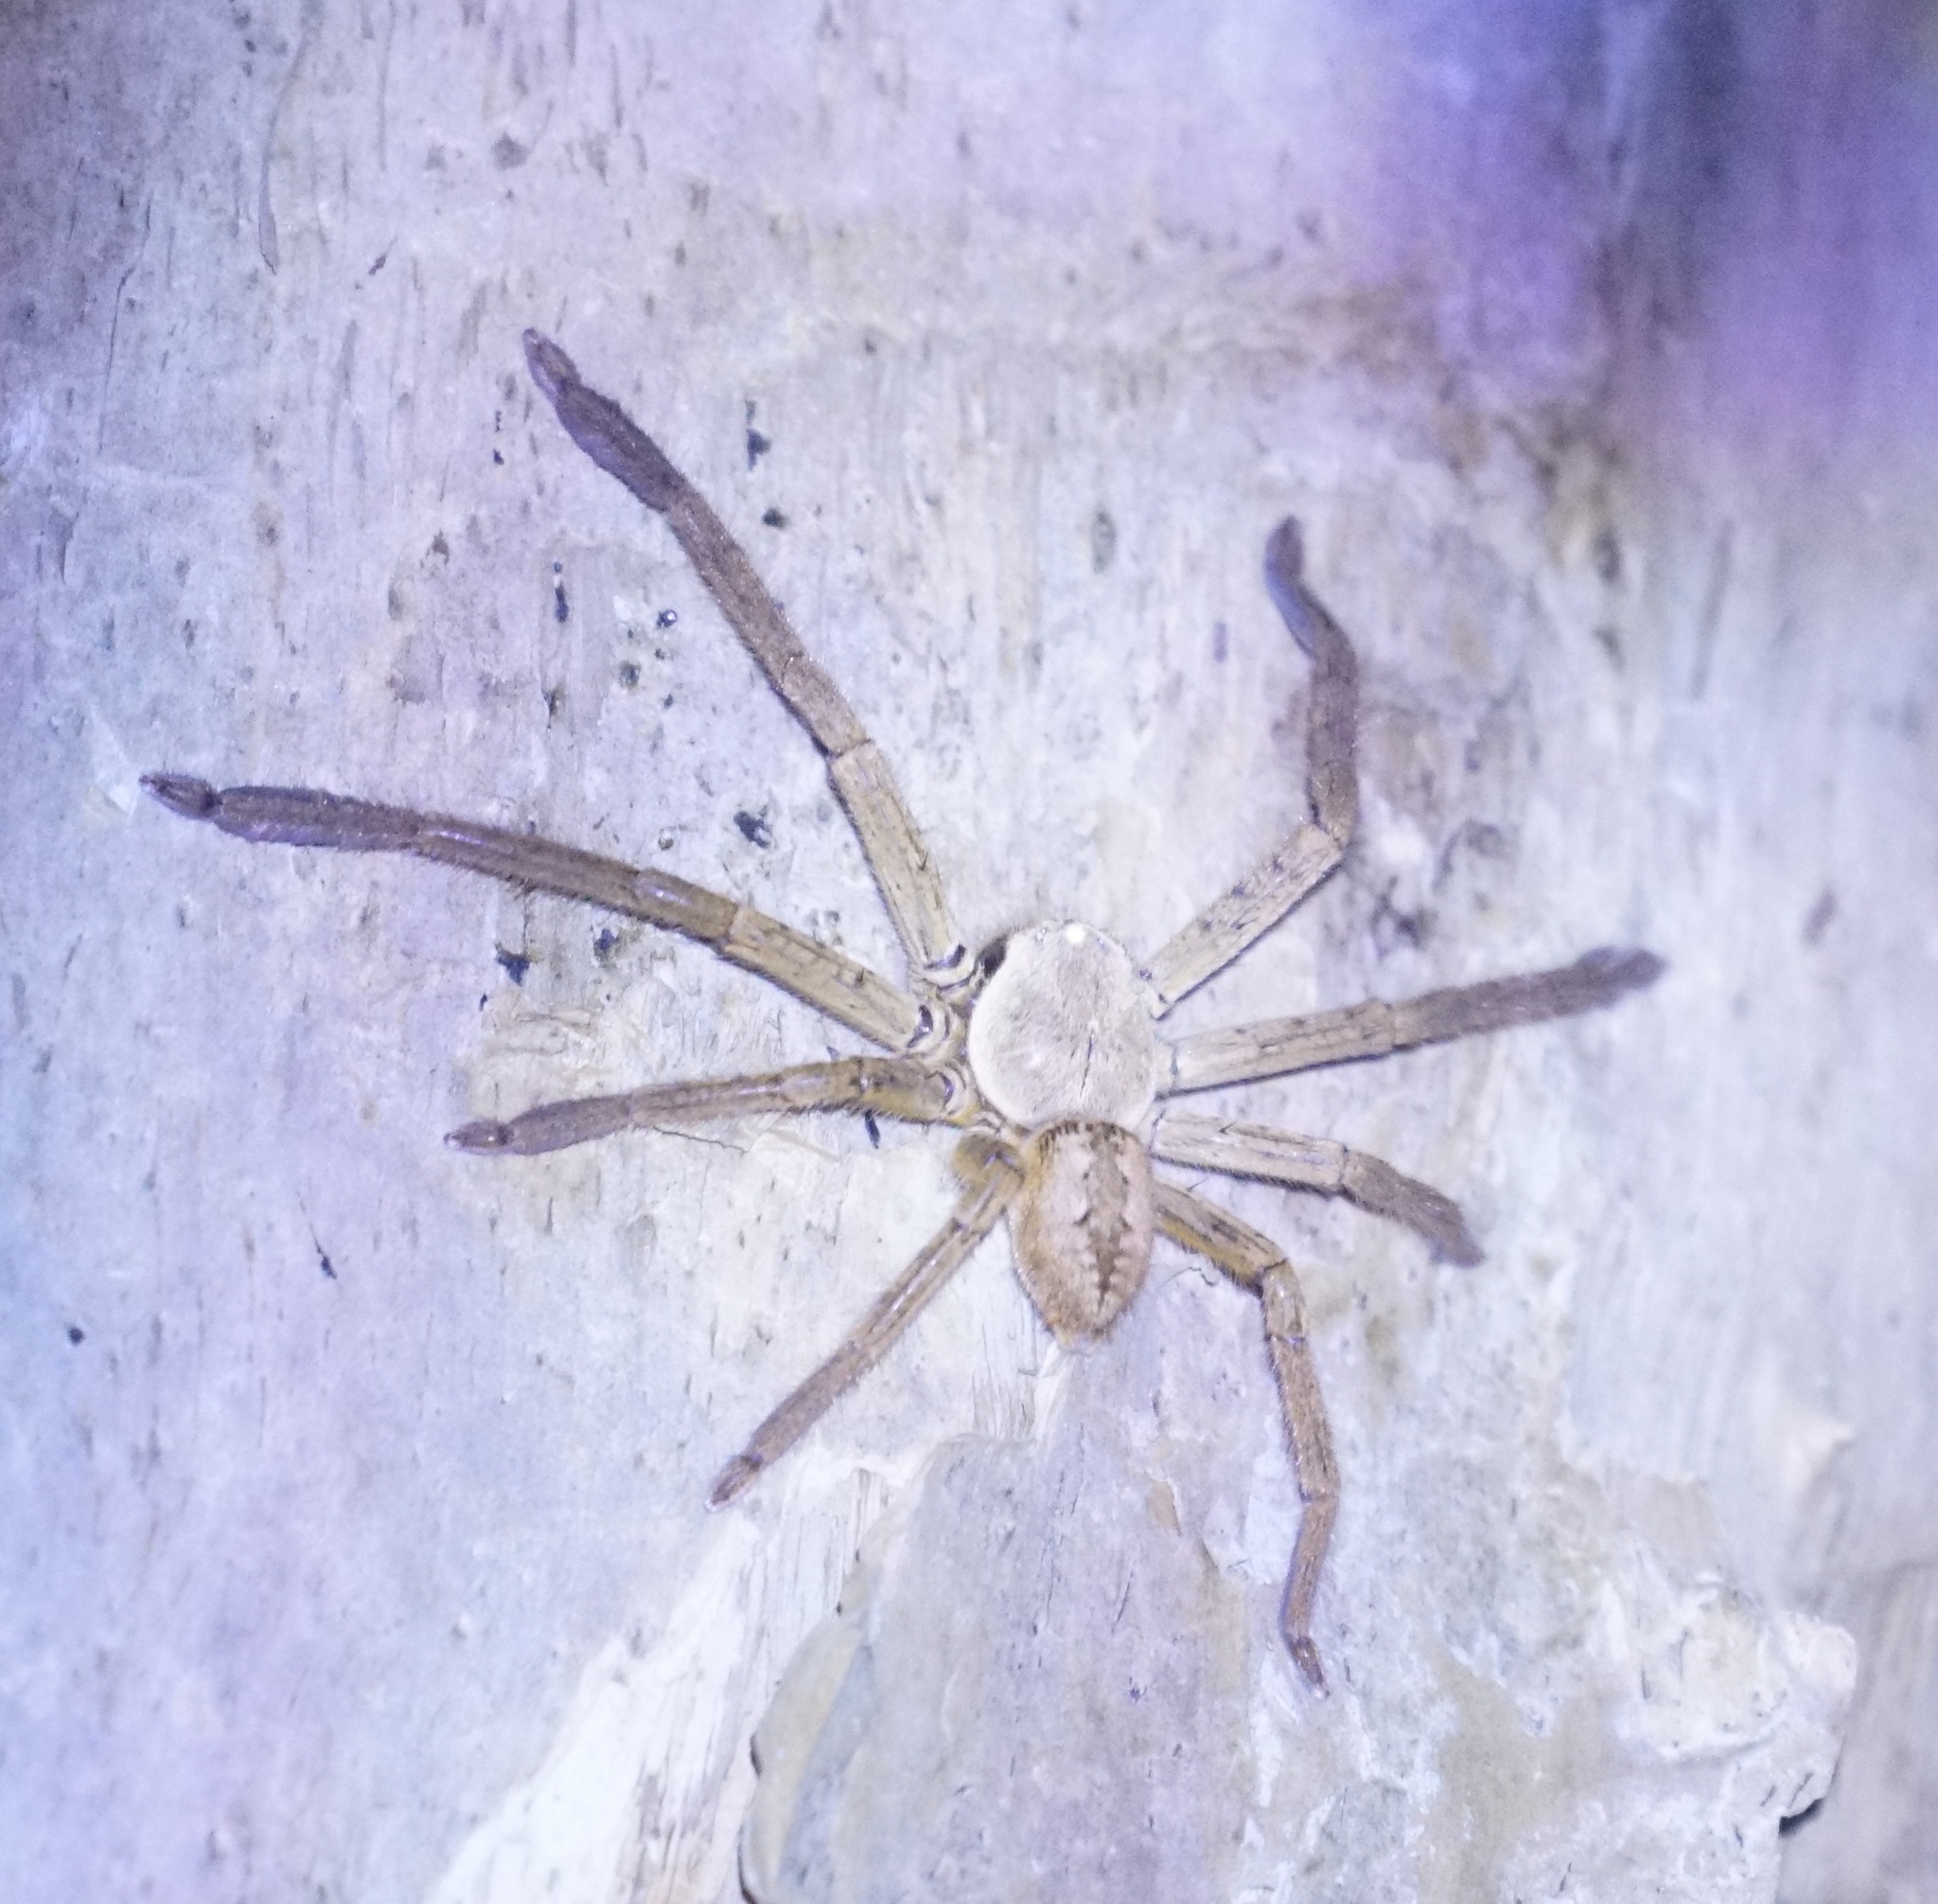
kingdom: Animalia
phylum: Arthropoda
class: Arachnida
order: Araneae
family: Sparassidae
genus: Beregama
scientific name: Beregama cordata
